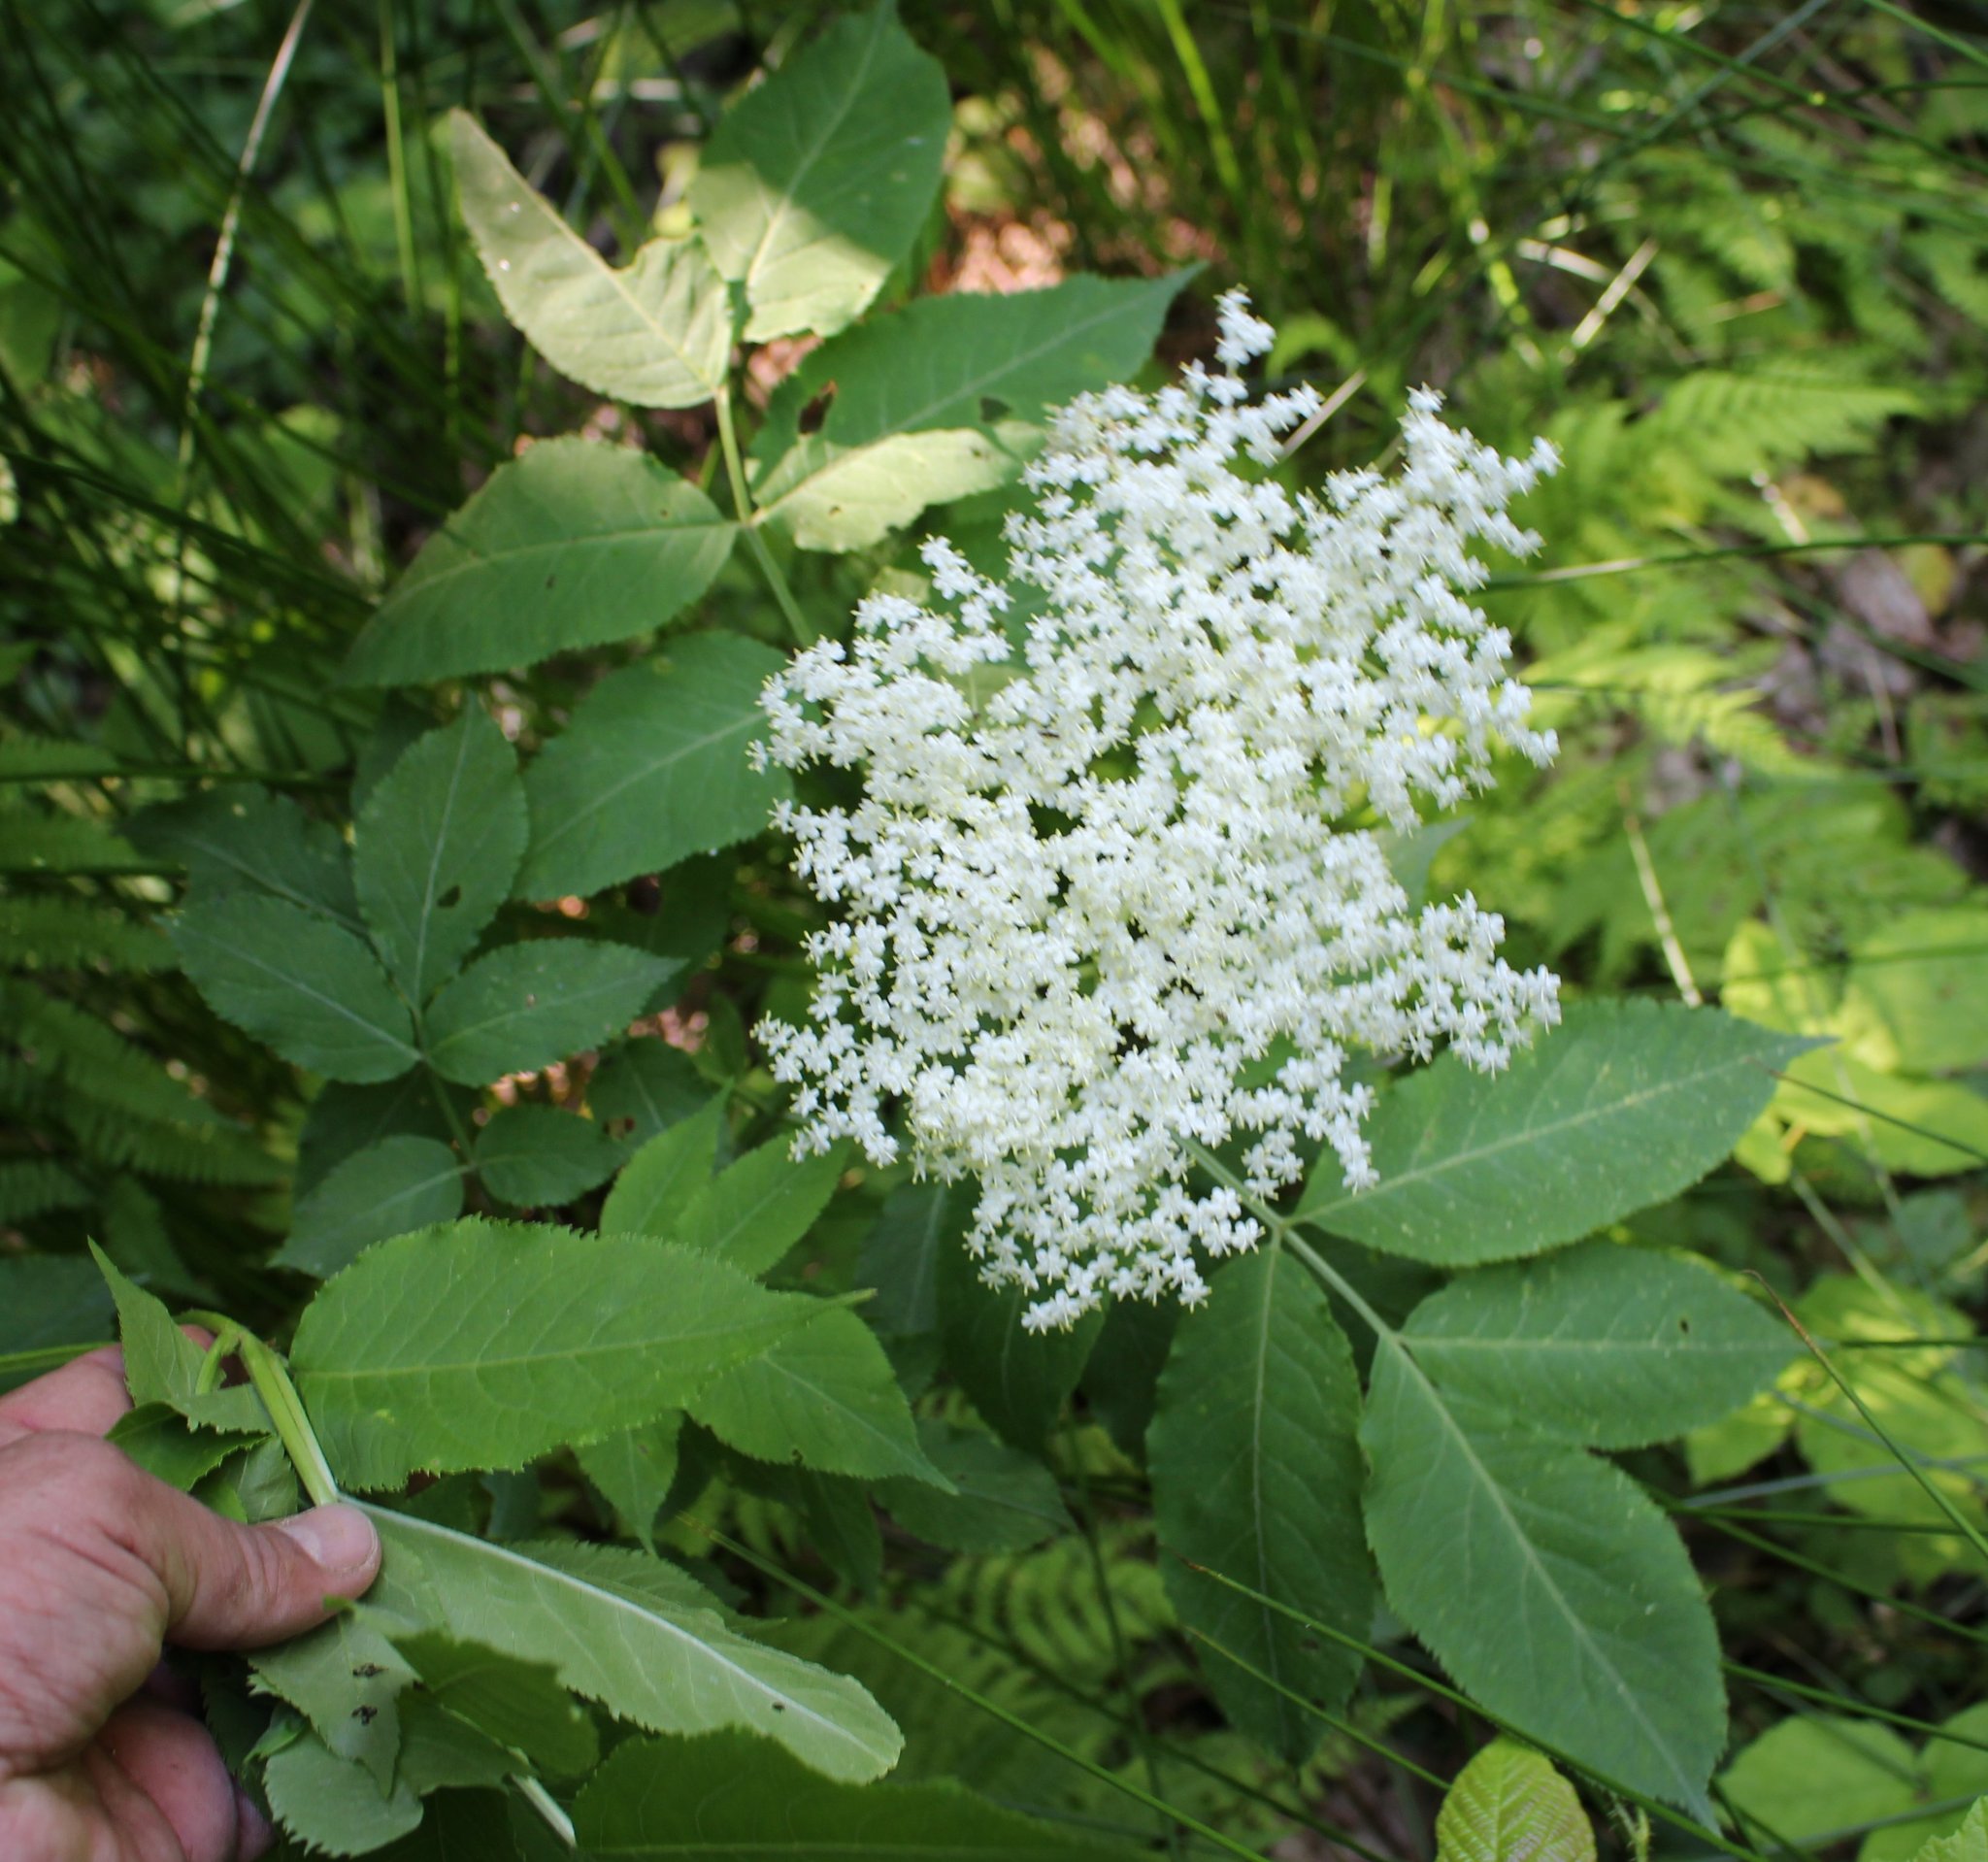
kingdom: Plantae
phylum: Tracheophyta
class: Magnoliopsida
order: Dipsacales
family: Viburnaceae
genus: Sambucus
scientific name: Sambucus nigra
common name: Elder
